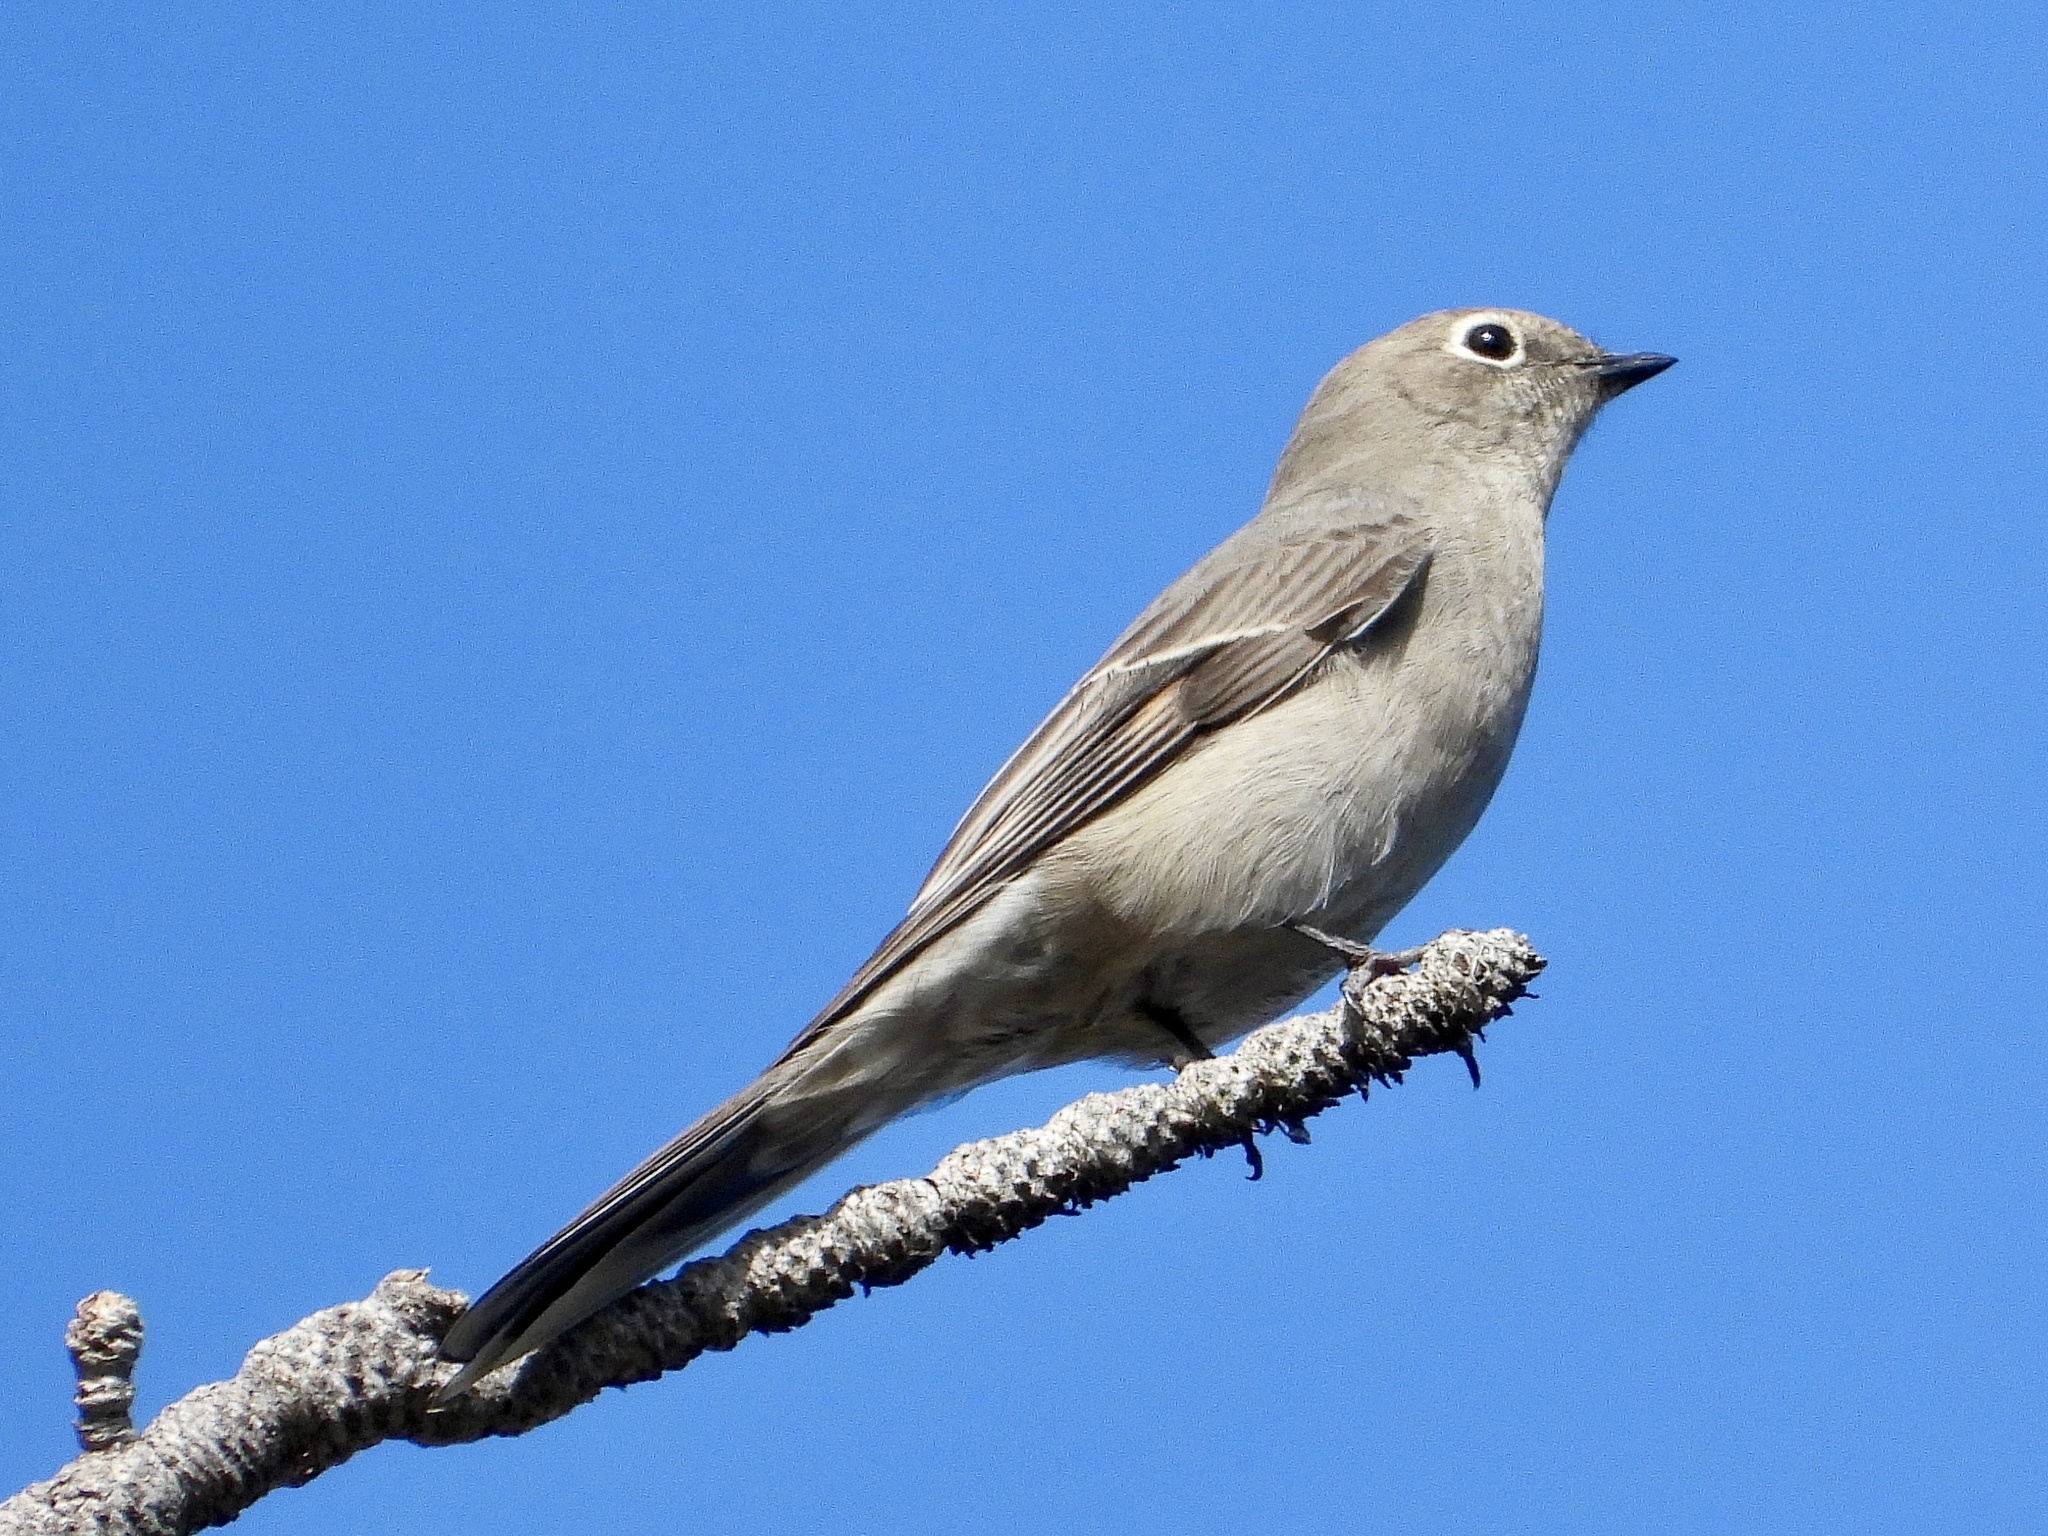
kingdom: Animalia
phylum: Chordata
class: Aves
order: Passeriformes
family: Turdidae
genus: Myadestes
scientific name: Myadestes townsendi
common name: Townsend's solitaire
